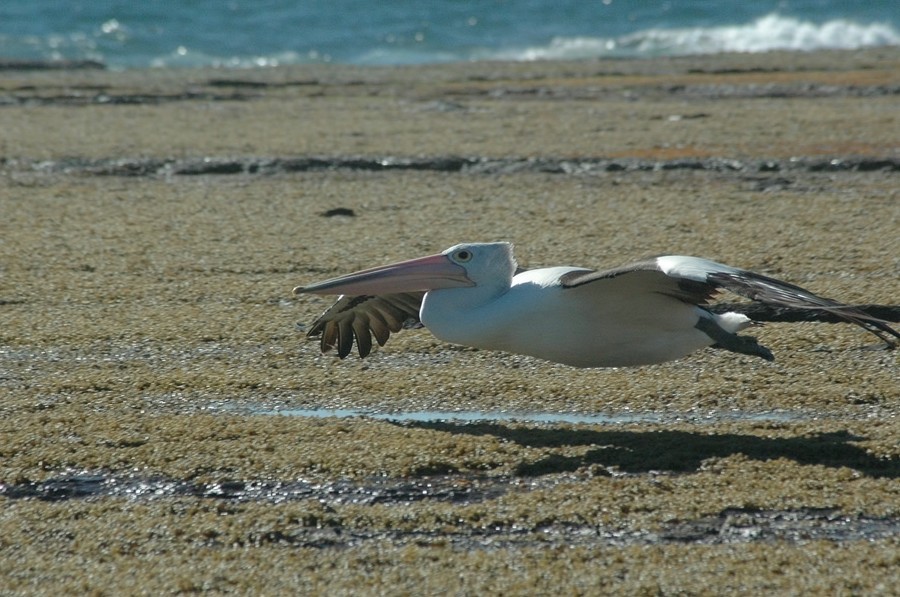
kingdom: Animalia
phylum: Chordata
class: Aves
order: Pelecaniformes
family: Pelecanidae
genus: Pelecanus
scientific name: Pelecanus conspicillatus
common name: Australian pelican
